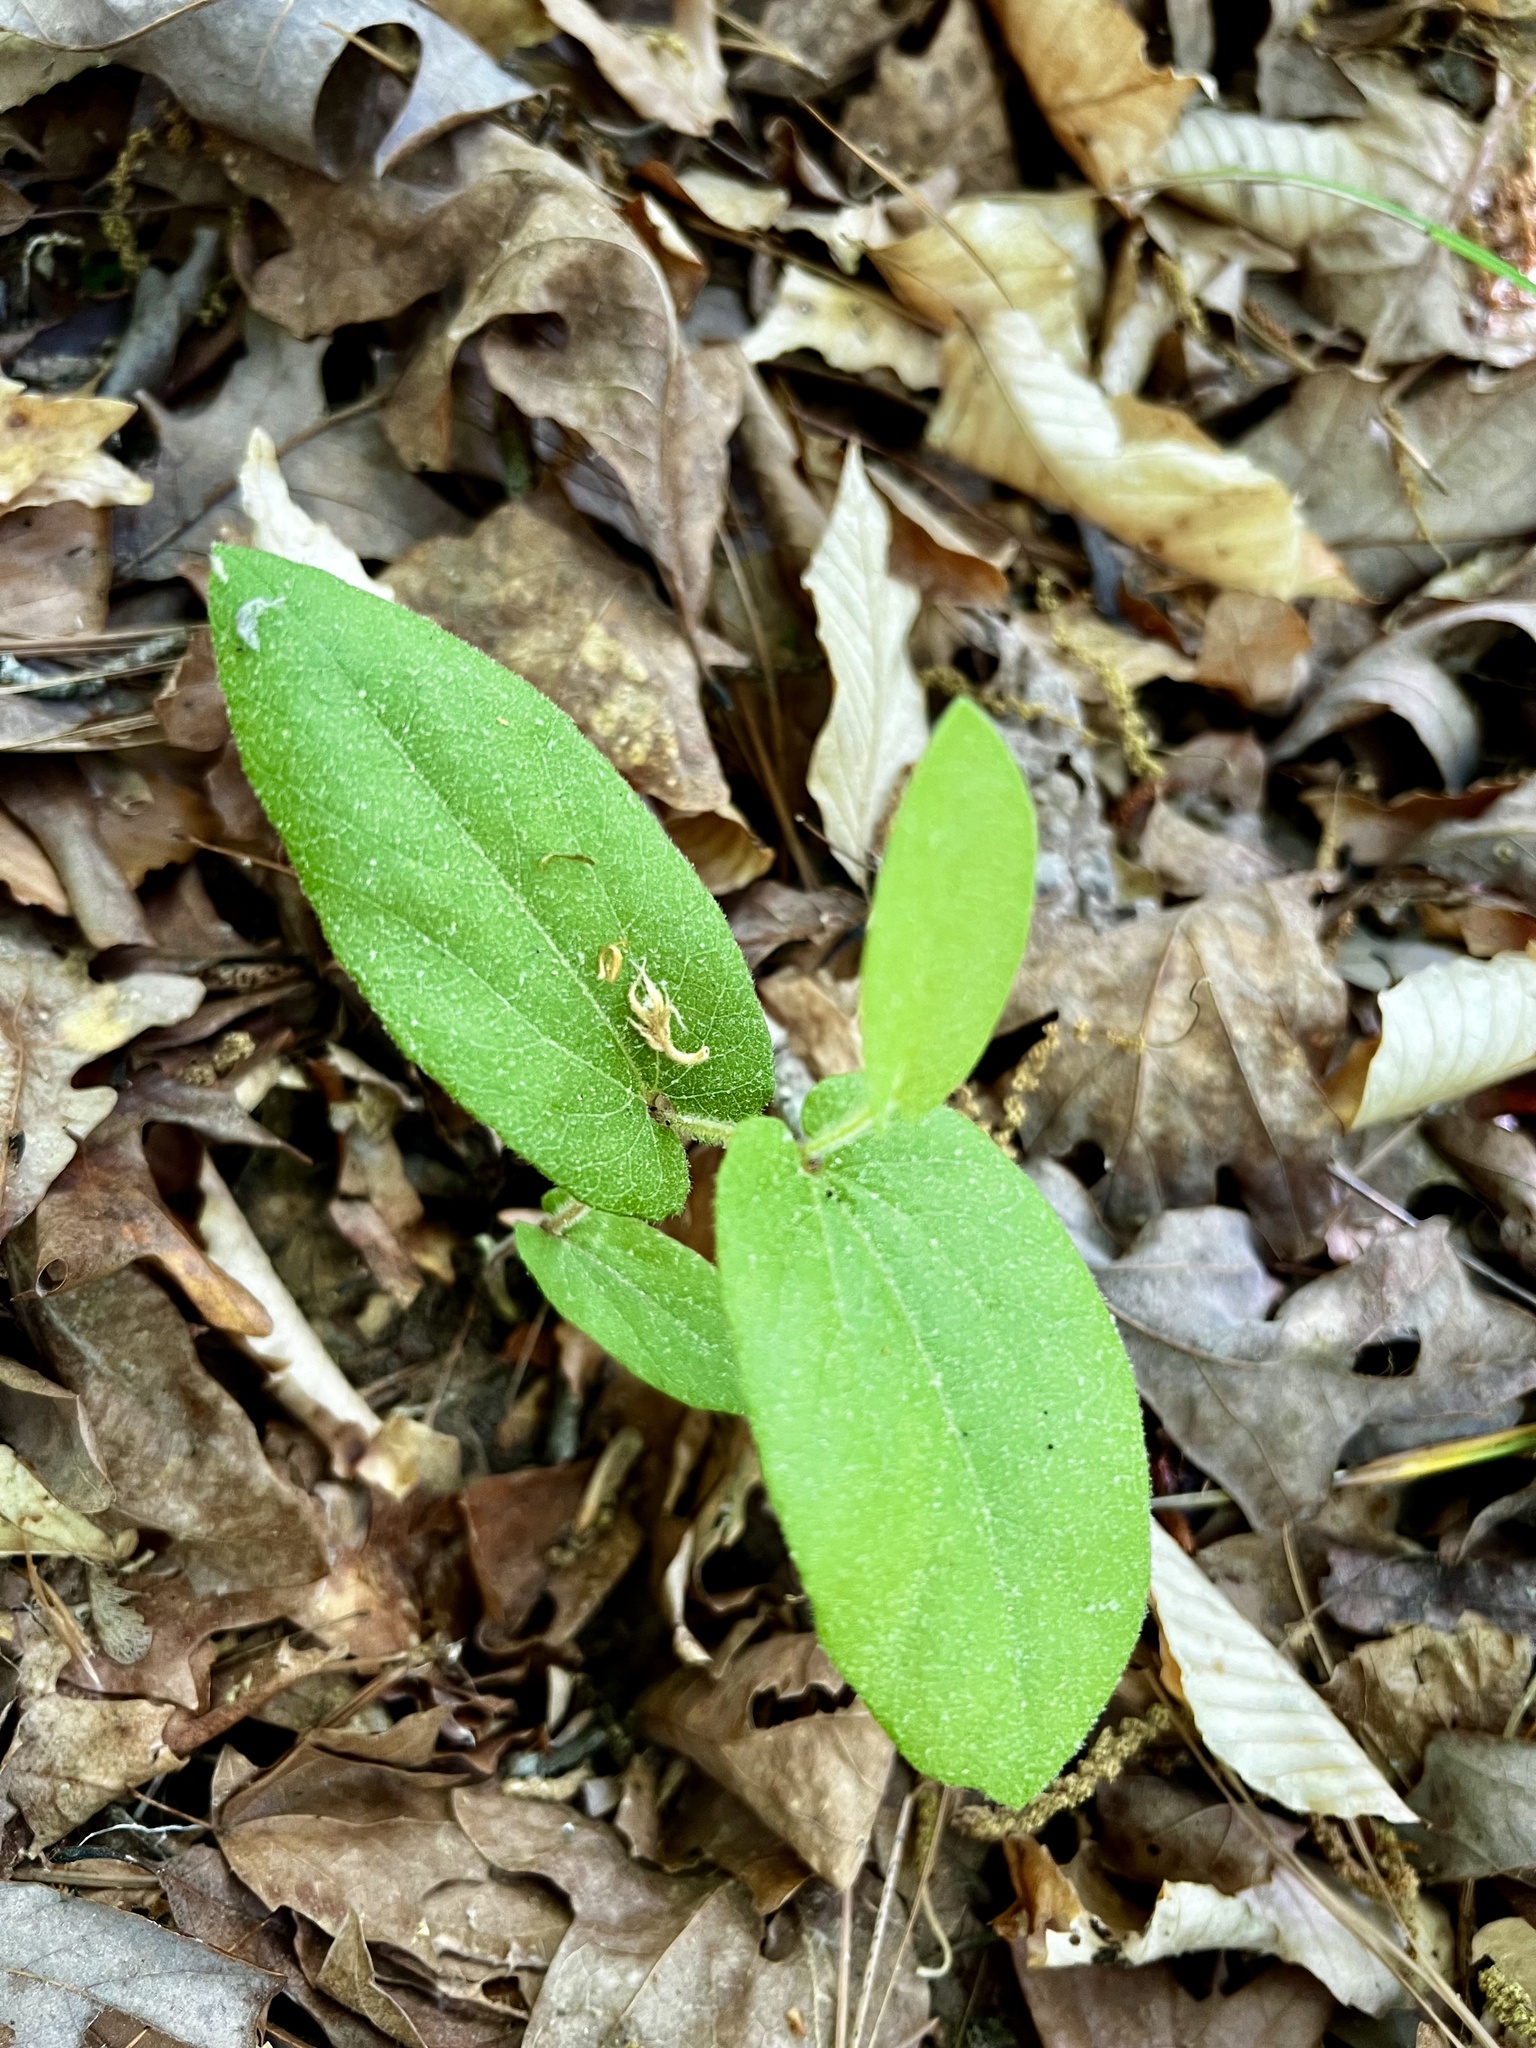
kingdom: Plantae
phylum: Tracheophyta
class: Magnoliopsida
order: Piperales
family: Aristolochiaceae
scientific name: Aristolochiaceae
